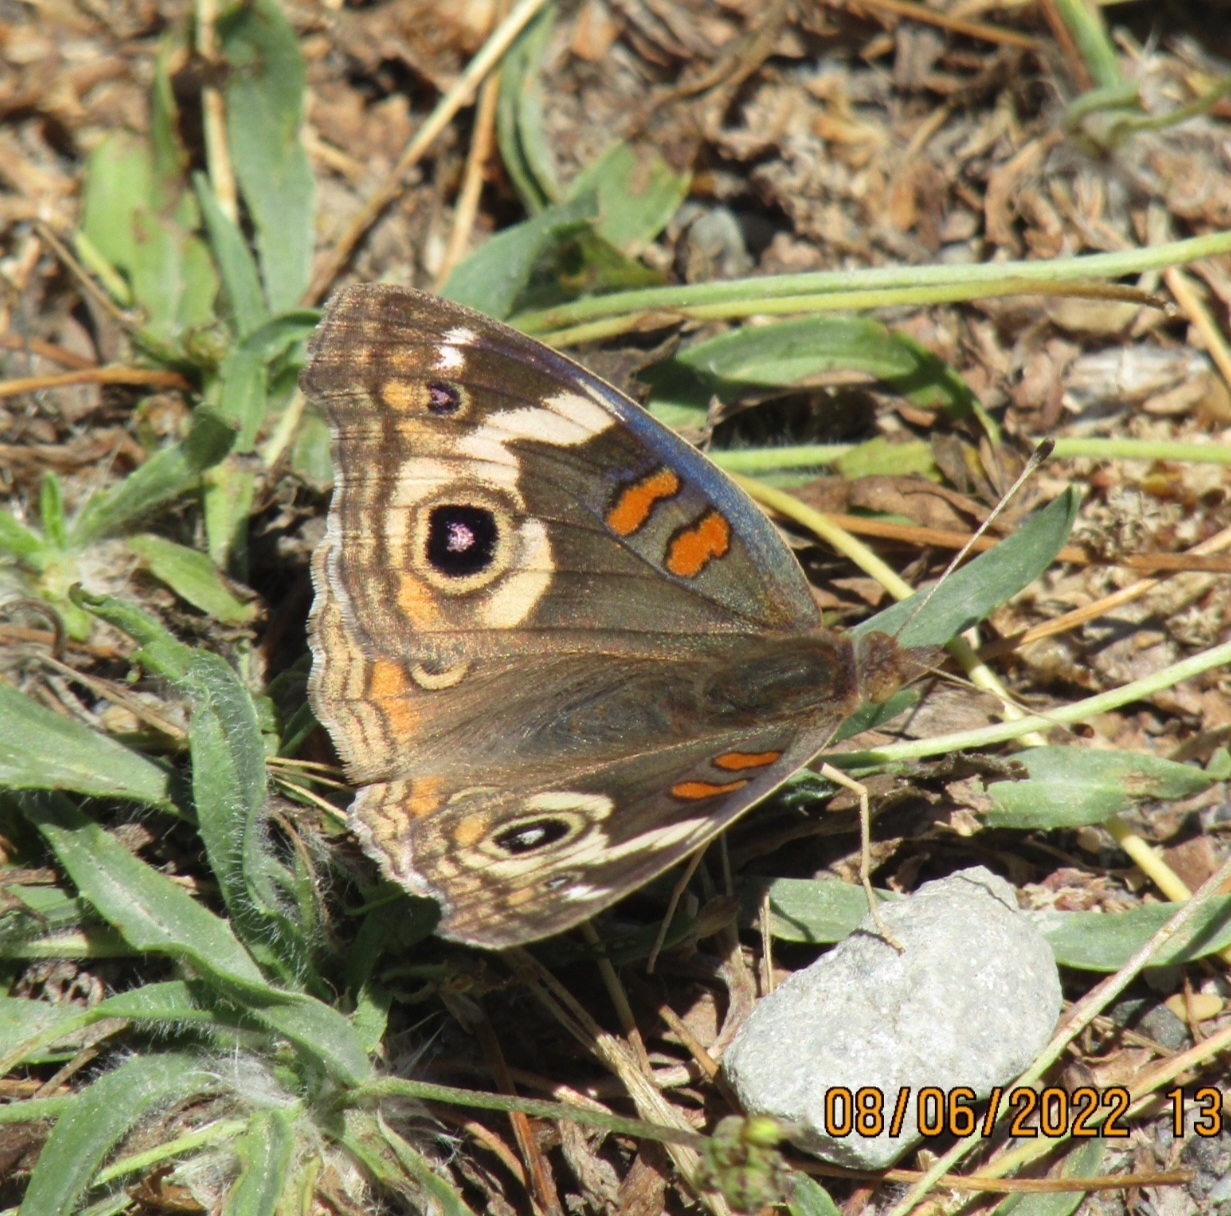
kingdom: Animalia
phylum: Arthropoda
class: Insecta
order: Lepidoptera
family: Nymphalidae
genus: Junonia
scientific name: Junonia grisea
